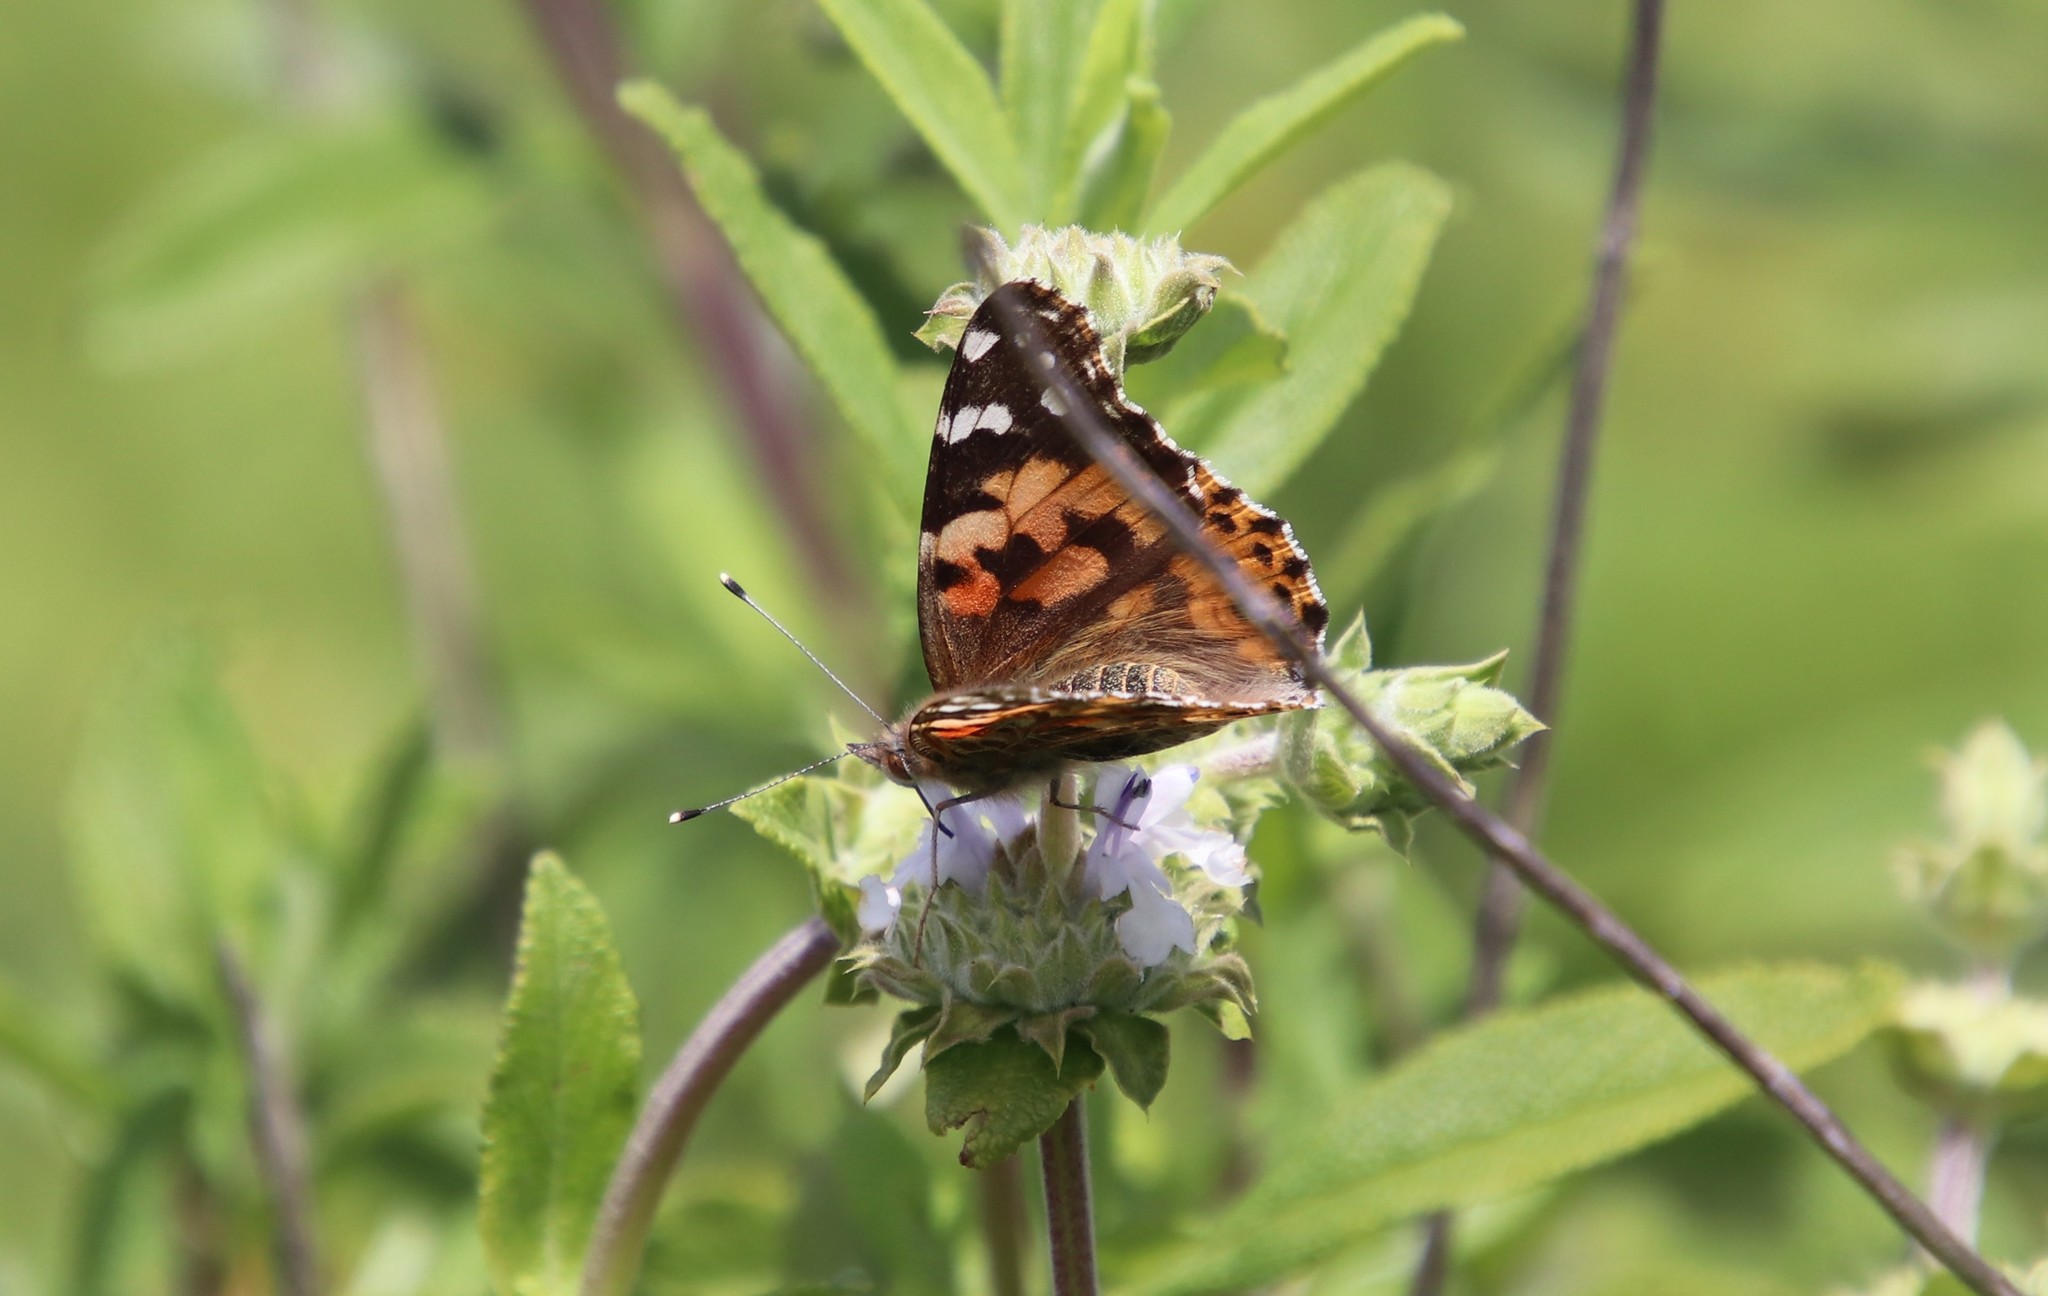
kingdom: Animalia
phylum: Arthropoda
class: Insecta
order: Lepidoptera
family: Nymphalidae
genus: Vanessa
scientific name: Vanessa cardui
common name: Painted lady
